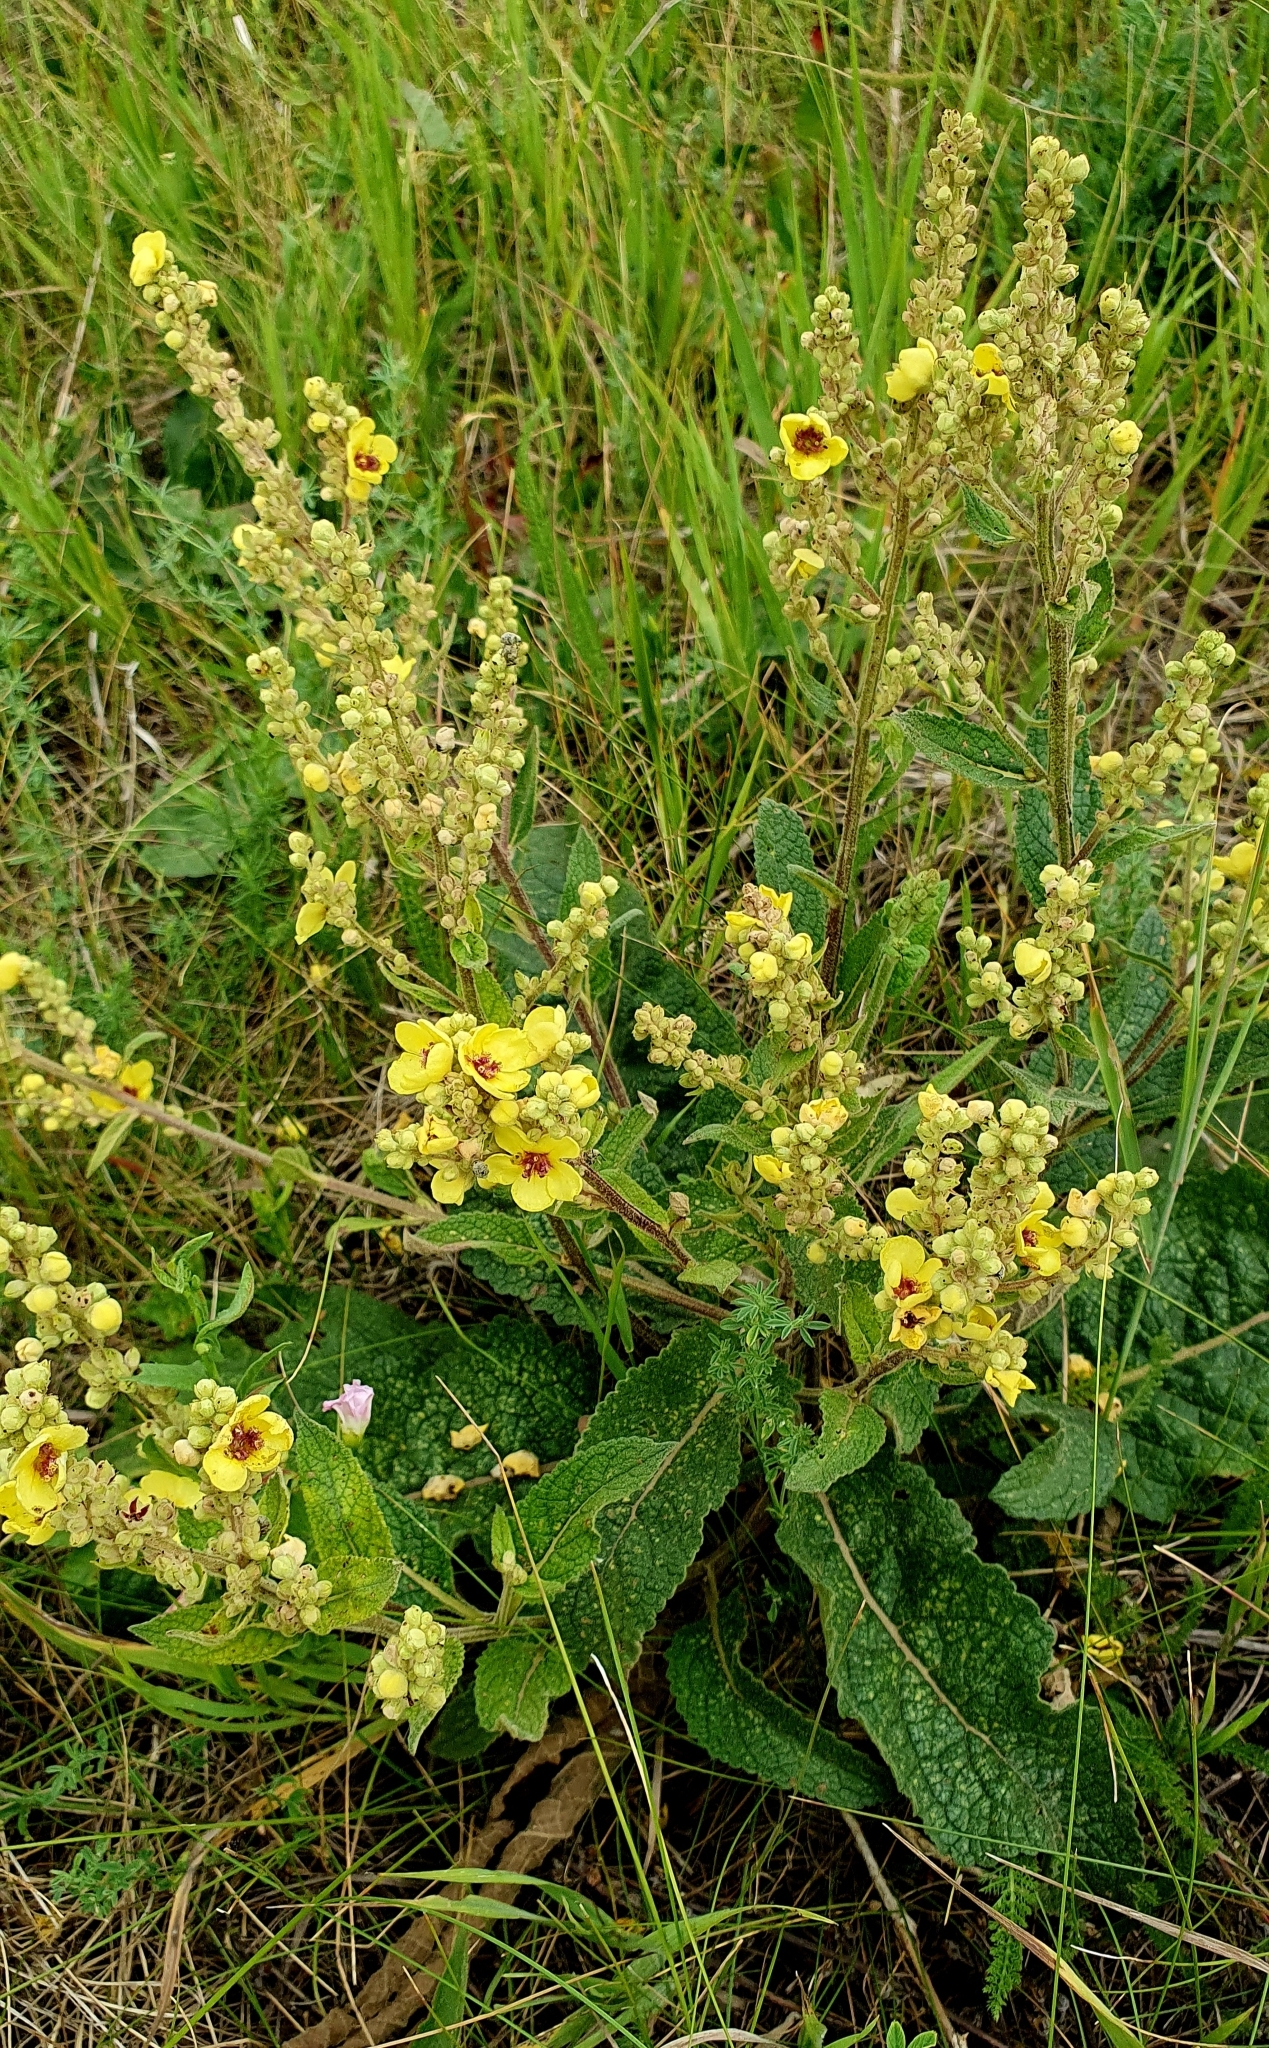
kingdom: Plantae
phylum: Tracheophyta
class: Magnoliopsida
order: Lamiales
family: Scrophulariaceae
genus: Verbascum
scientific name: Verbascum chaixii
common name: Nettle-leaved mullein
